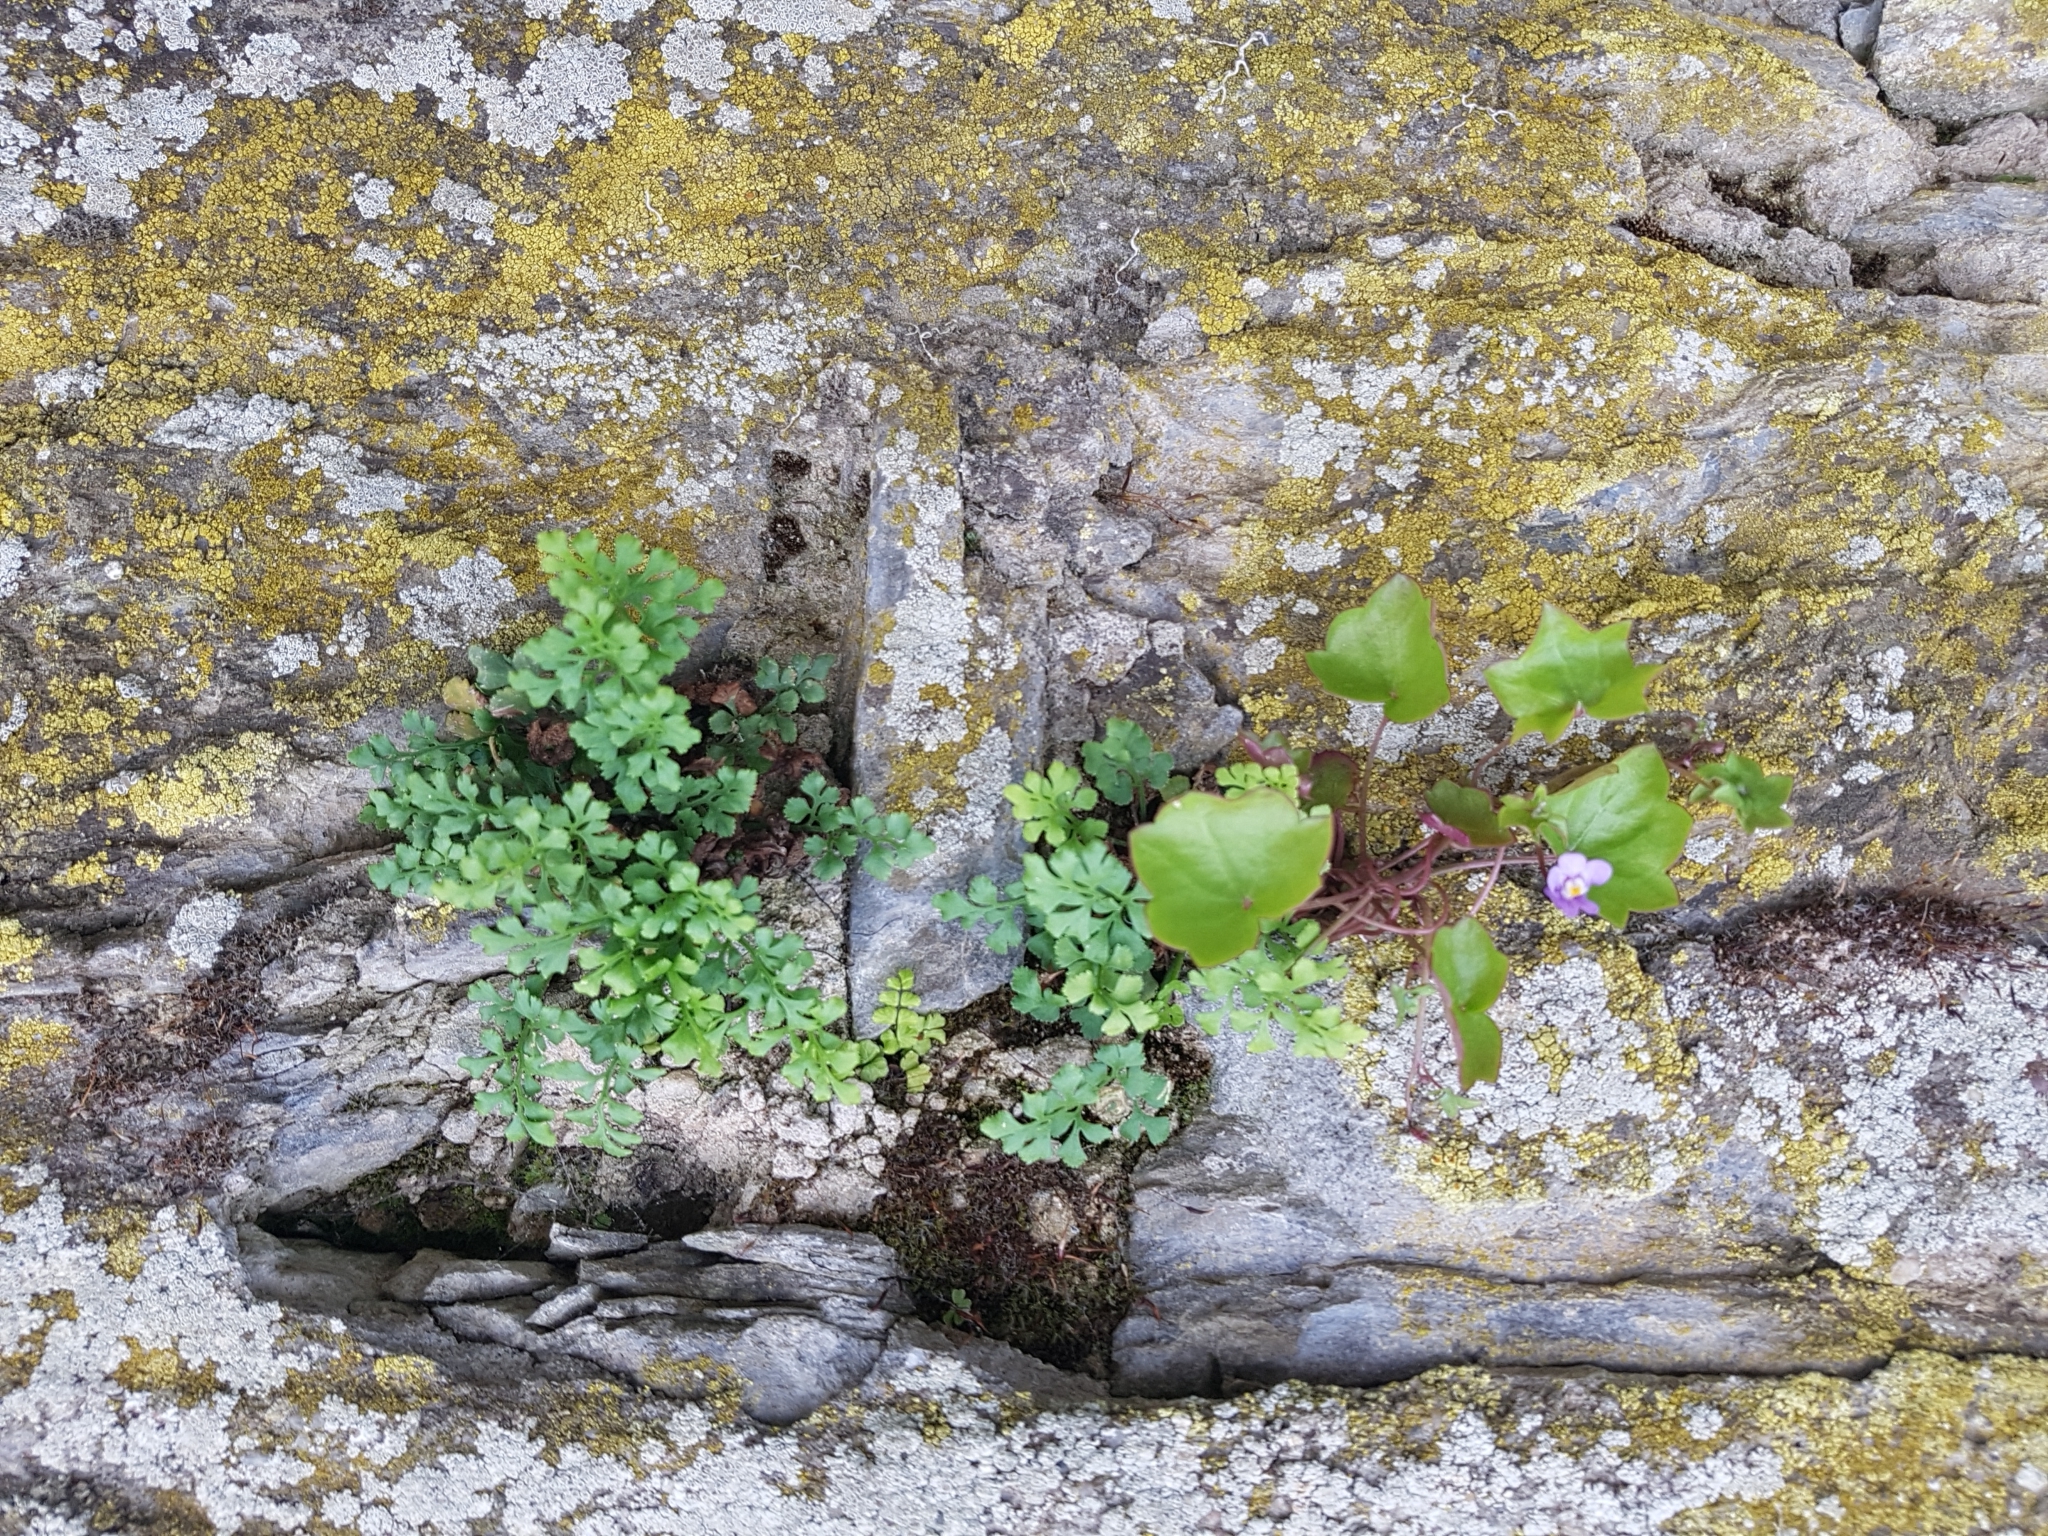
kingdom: Plantae
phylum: Tracheophyta
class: Polypodiopsida
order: Polypodiales
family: Aspleniaceae
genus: Asplenium
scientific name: Asplenium ruta-muraria
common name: Wall-rue
